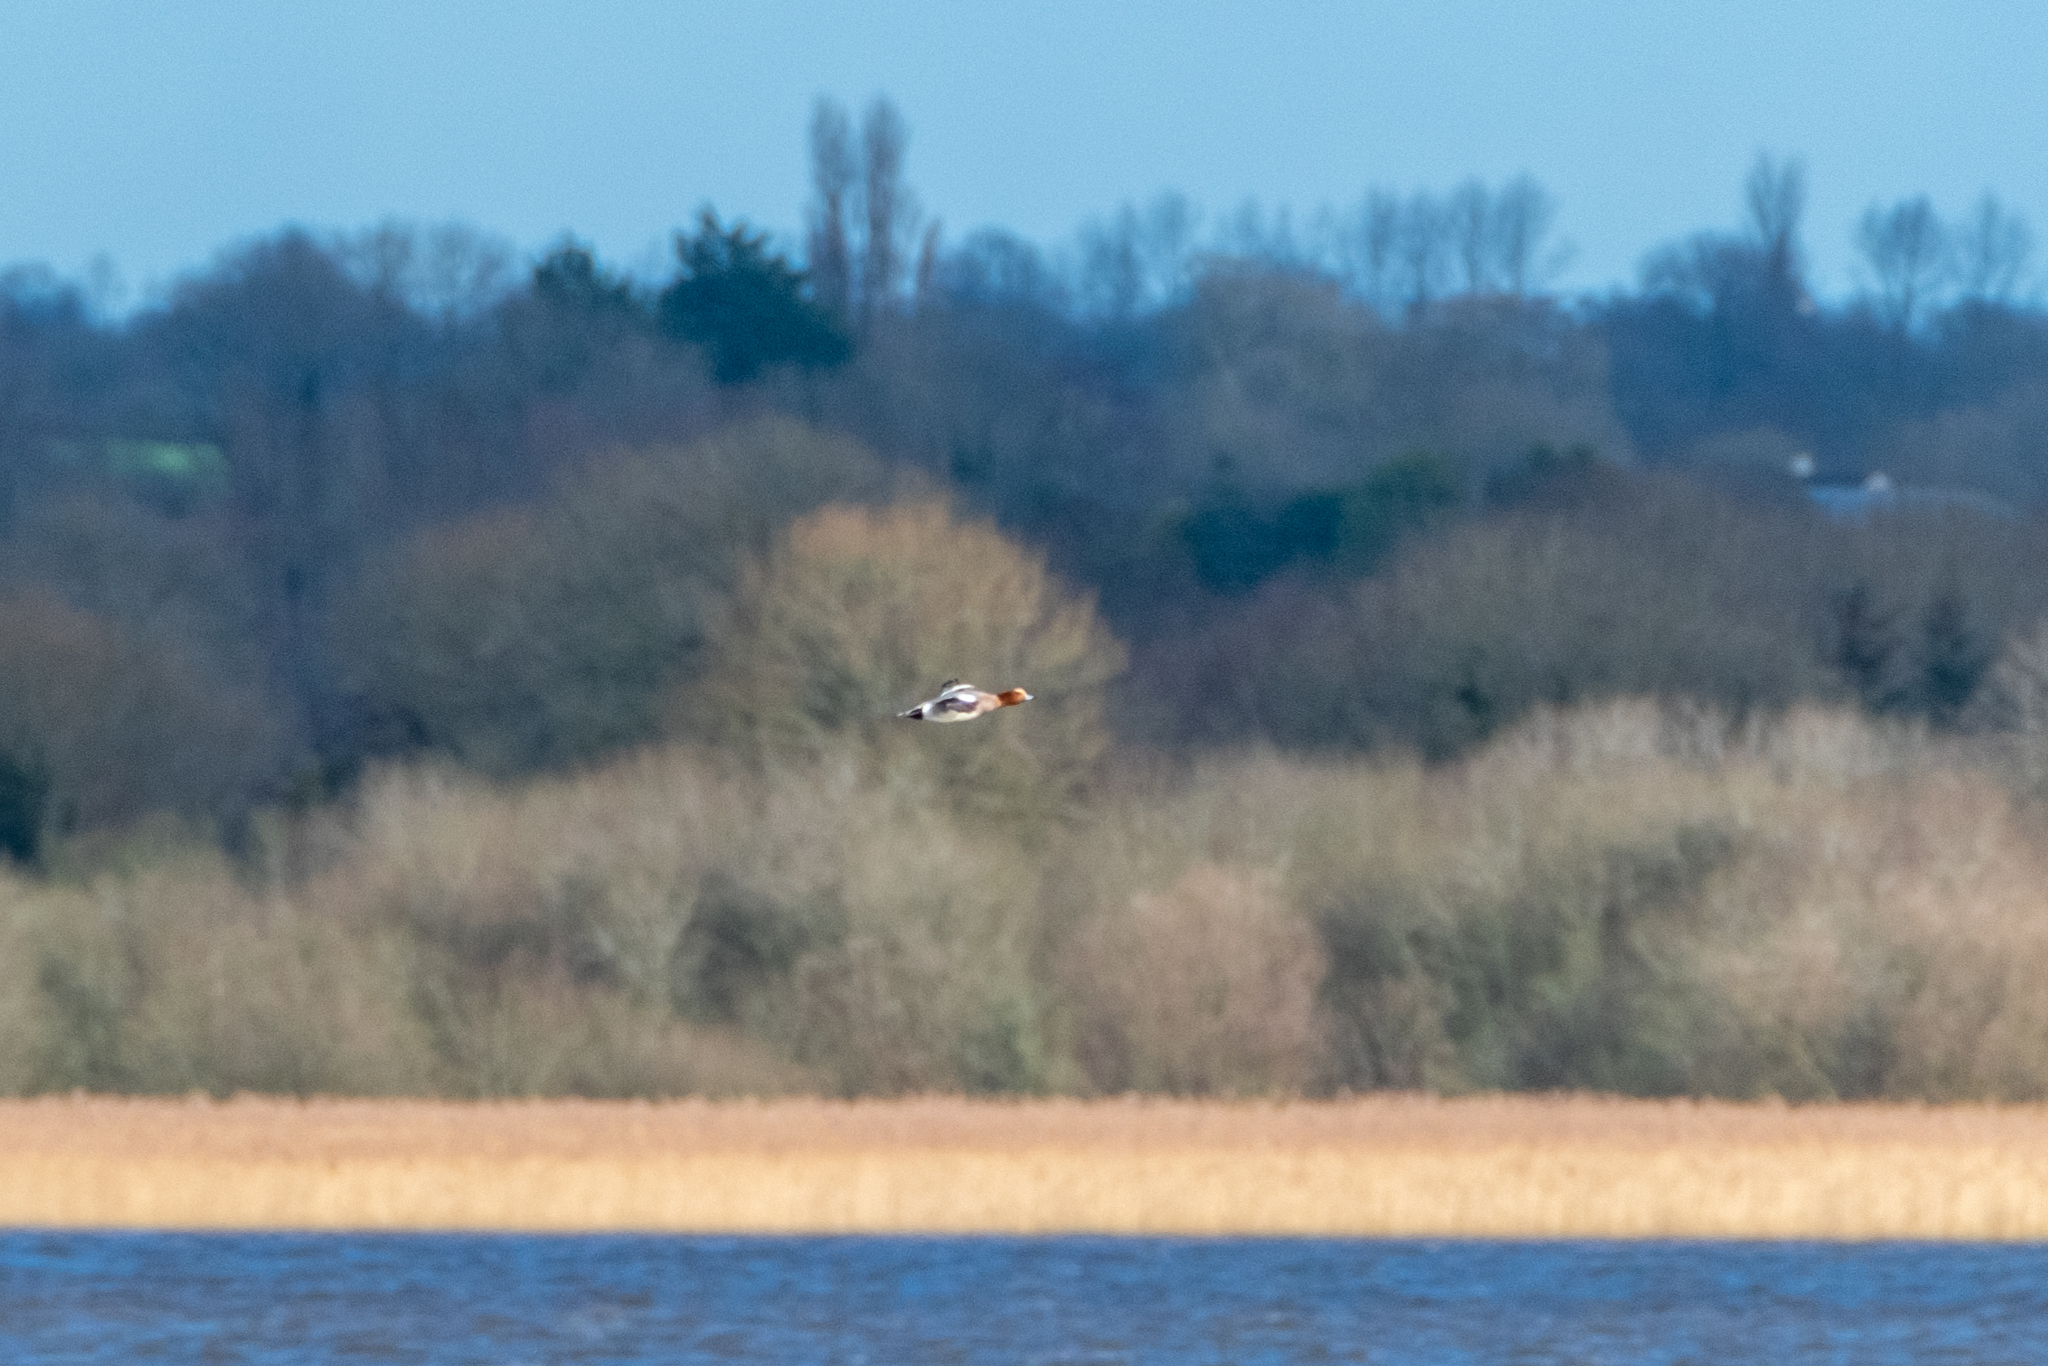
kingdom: Animalia
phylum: Chordata
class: Aves
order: Anseriformes
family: Anatidae
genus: Mareca
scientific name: Mareca penelope
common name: Eurasian wigeon
